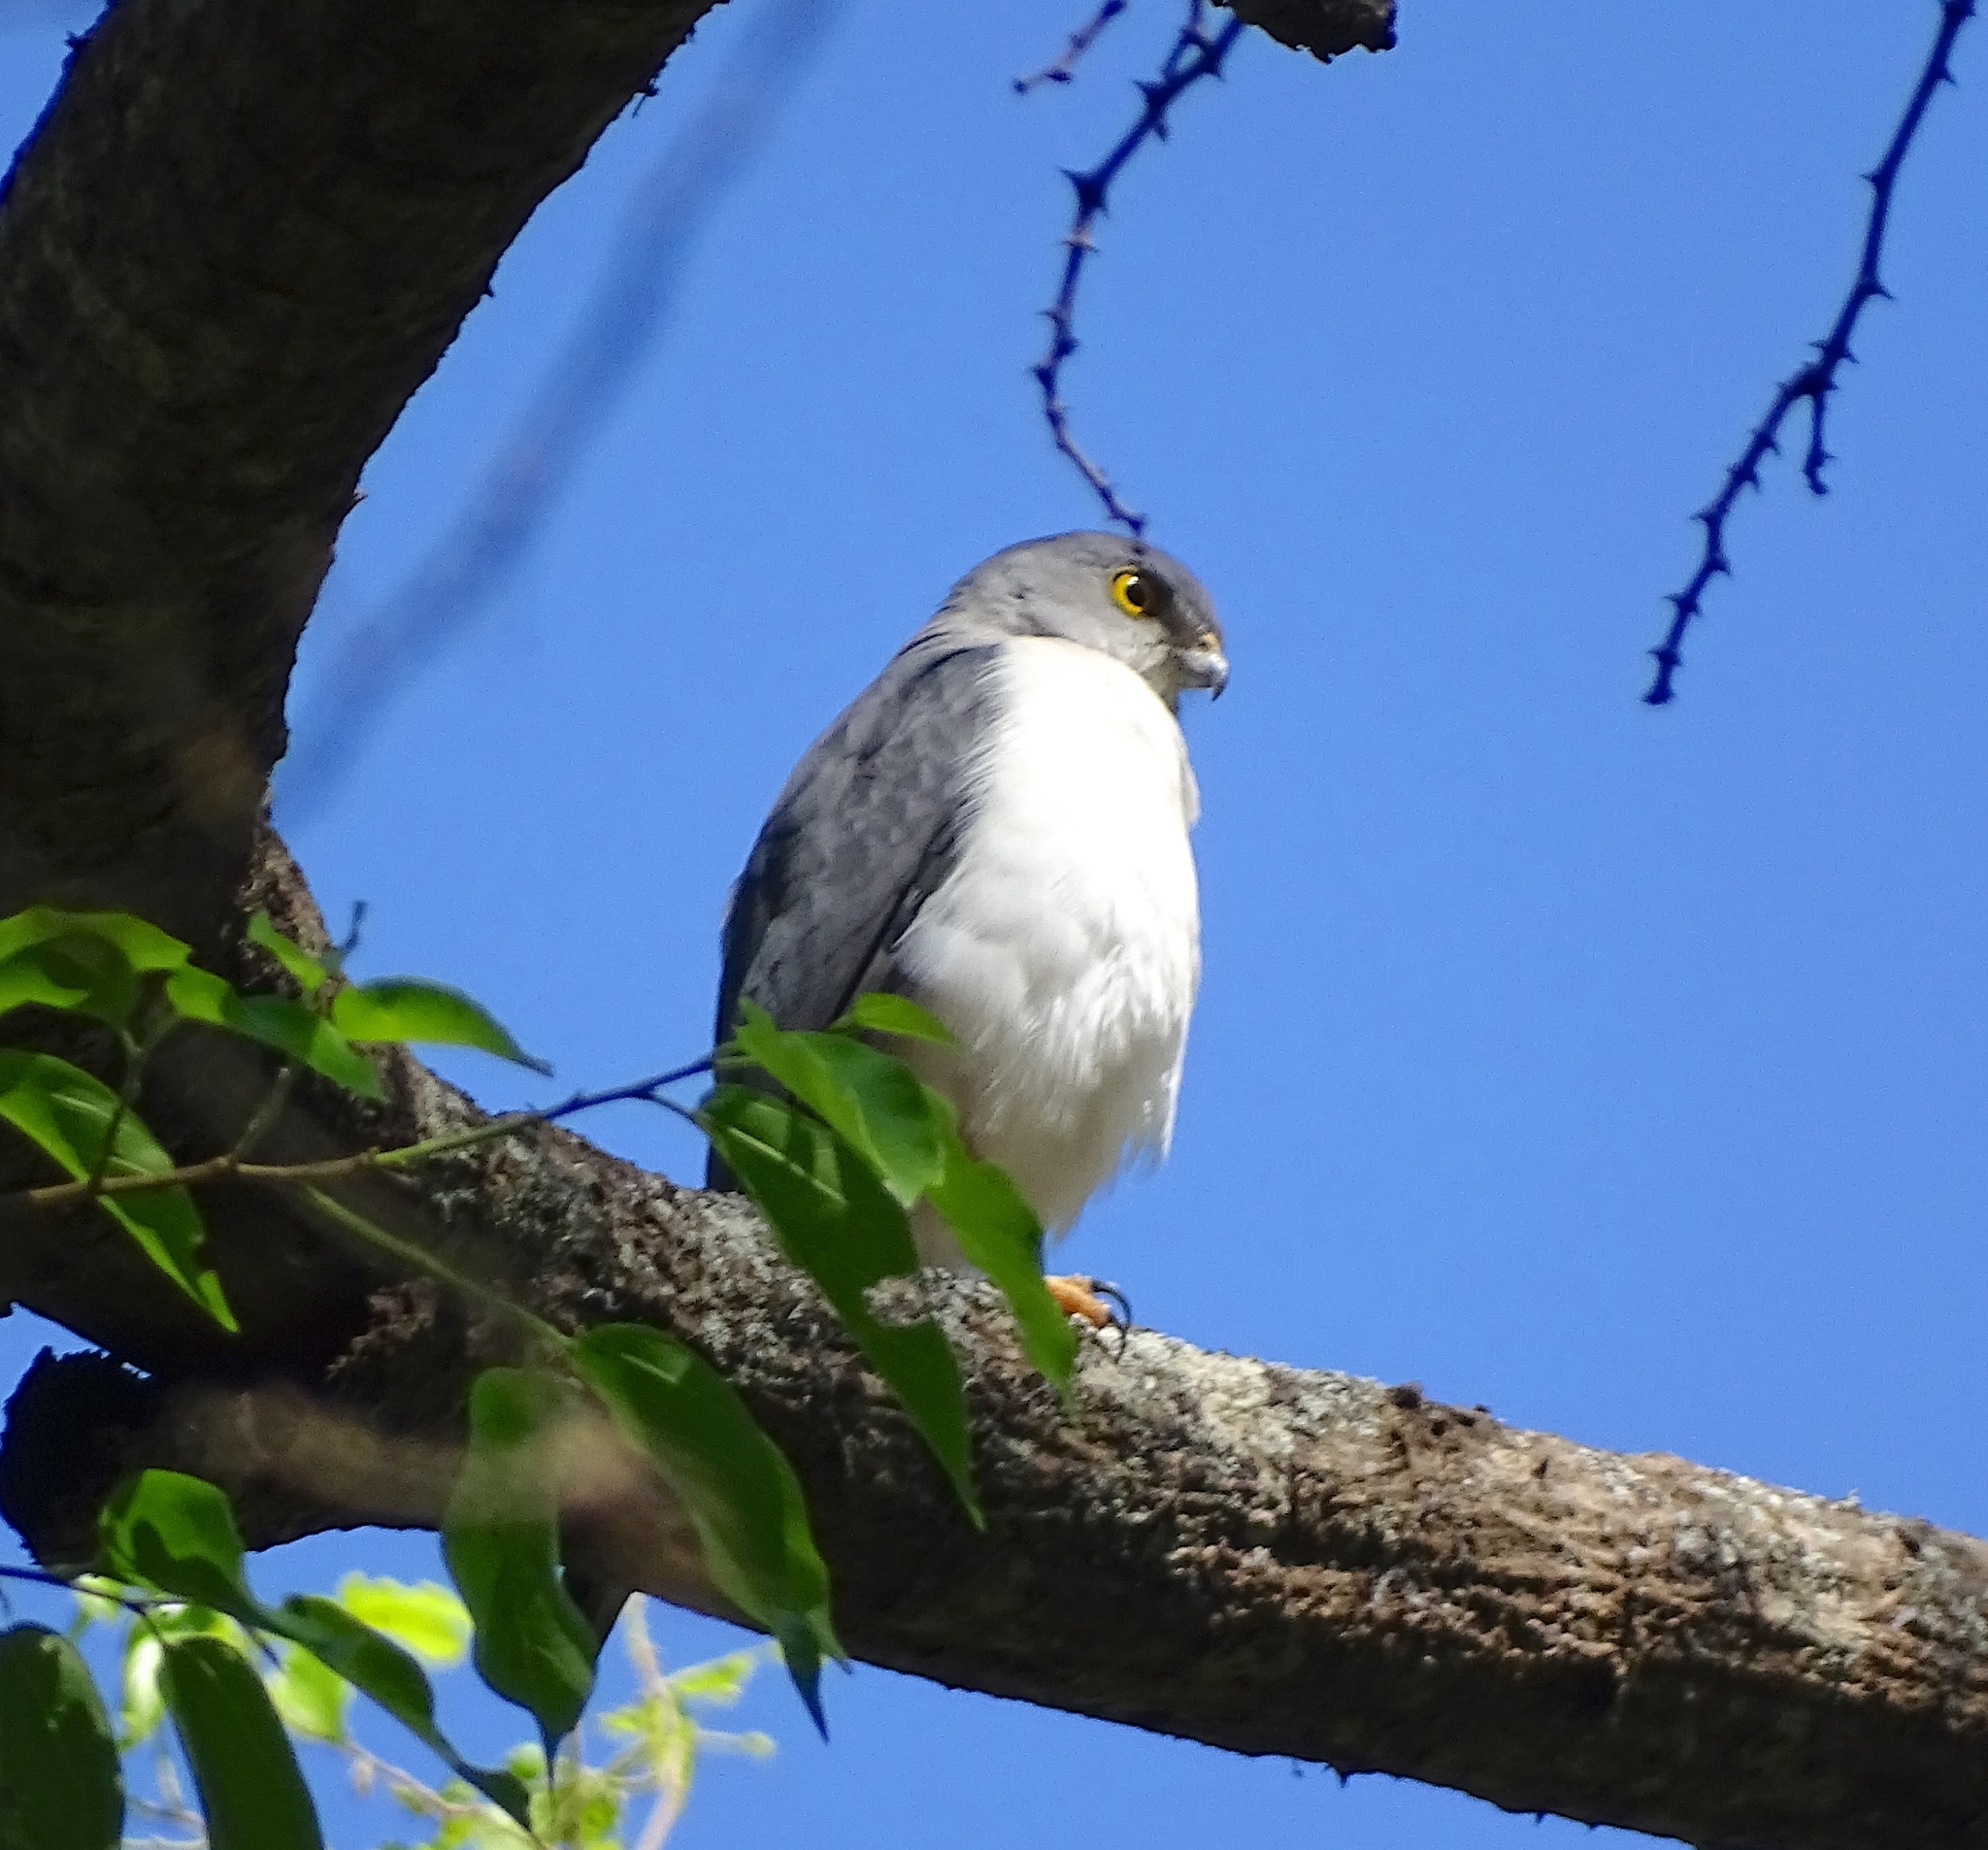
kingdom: Animalia
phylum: Chordata
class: Aves
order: Accipitriformes
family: Accipitridae
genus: Accipiter
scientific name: Accipiter francesiae
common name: Frances's sparrowhawk
